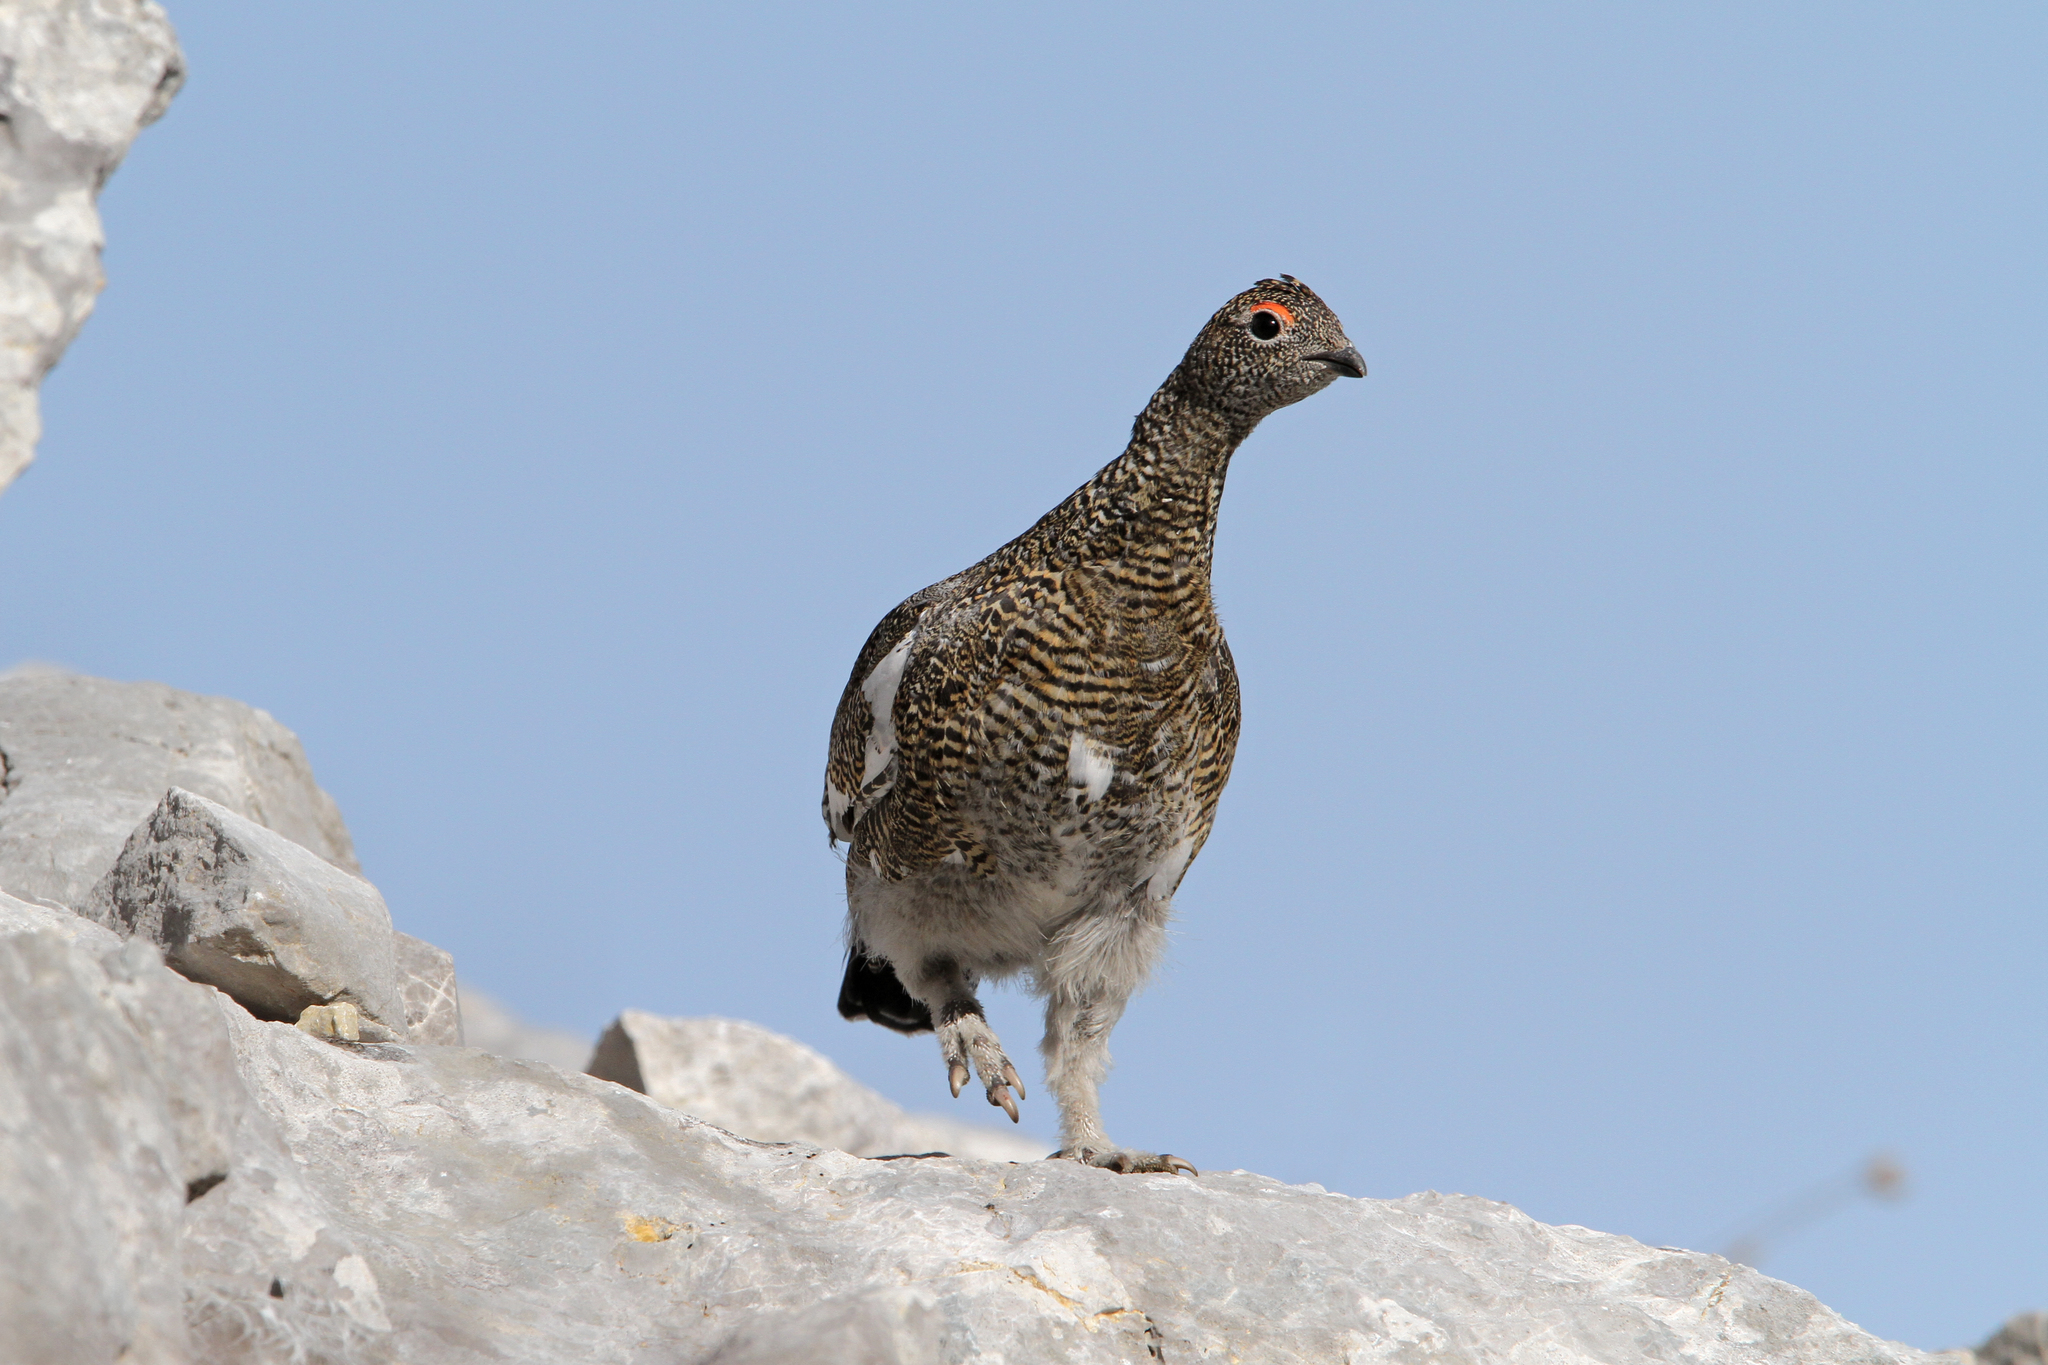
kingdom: Animalia
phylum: Chordata
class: Aves
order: Galliformes
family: Phasianidae
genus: Lagopus
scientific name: Lagopus muta
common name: Rock ptarmigan
